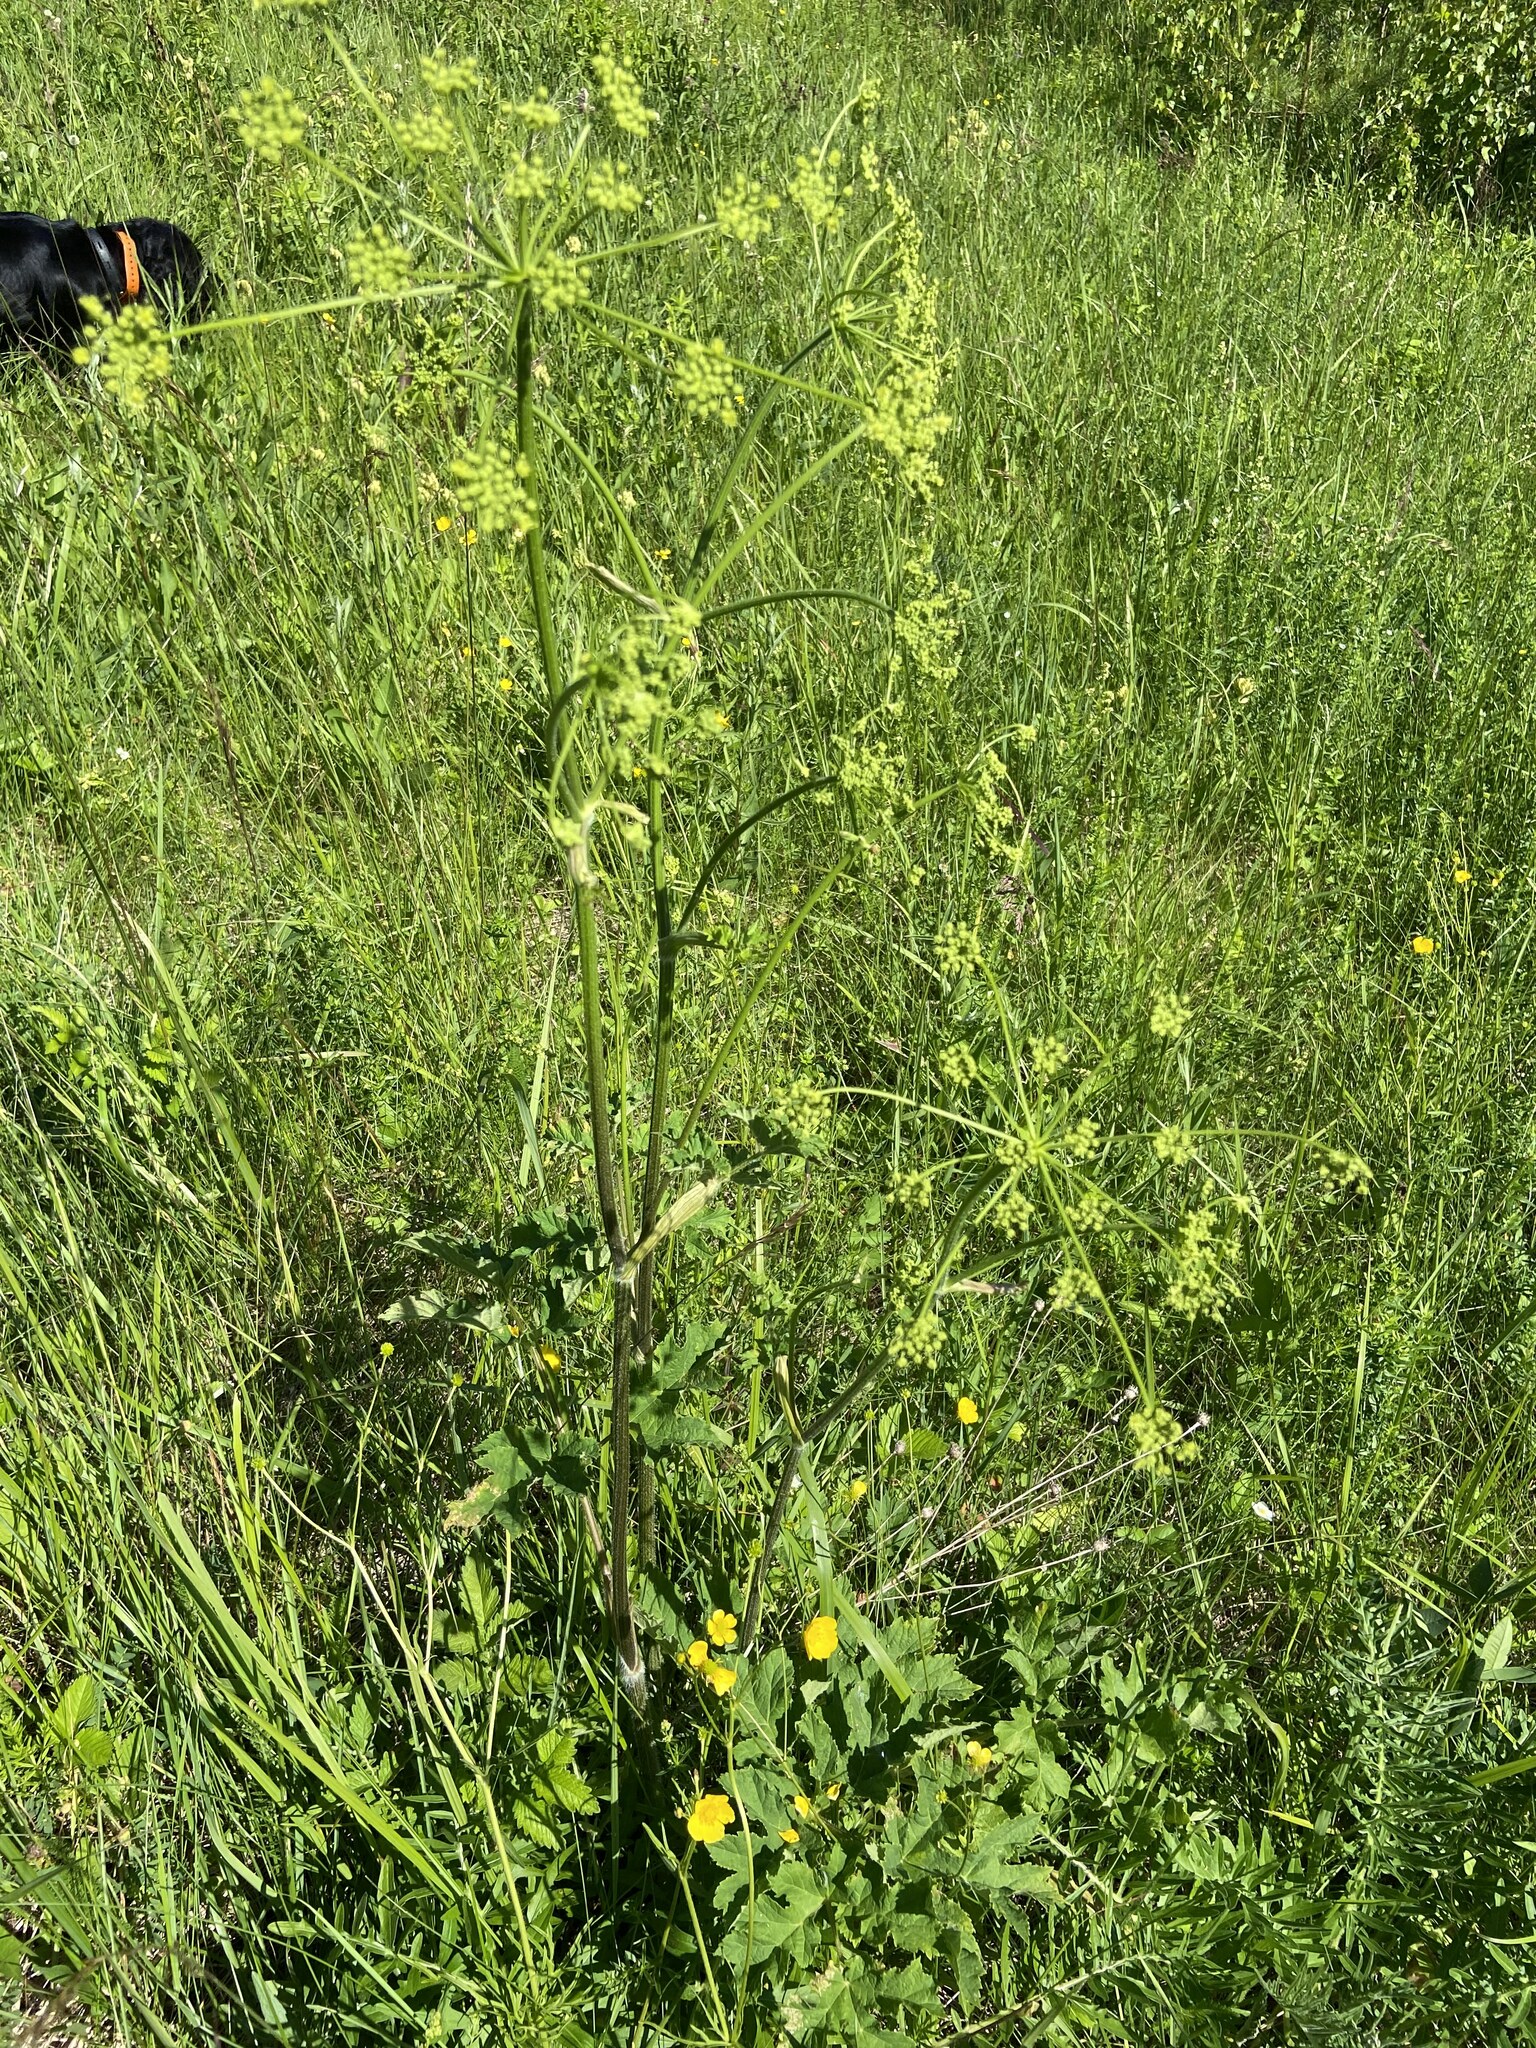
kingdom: Plantae
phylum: Tracheophyta
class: Magnoliopsida
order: Apiales
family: Apiaceae
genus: Heracleum
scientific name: Heracleum sphondylium
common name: Hogweed
